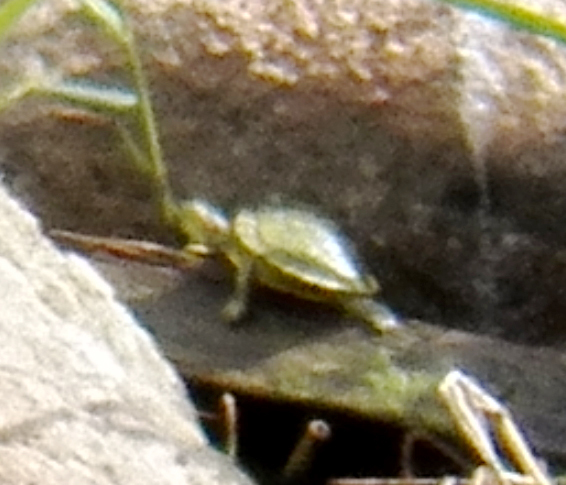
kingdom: Animalia
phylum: Chordata
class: Testudines
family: Emydidae
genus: Trachemys
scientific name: Trachemys scripta
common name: Slider
